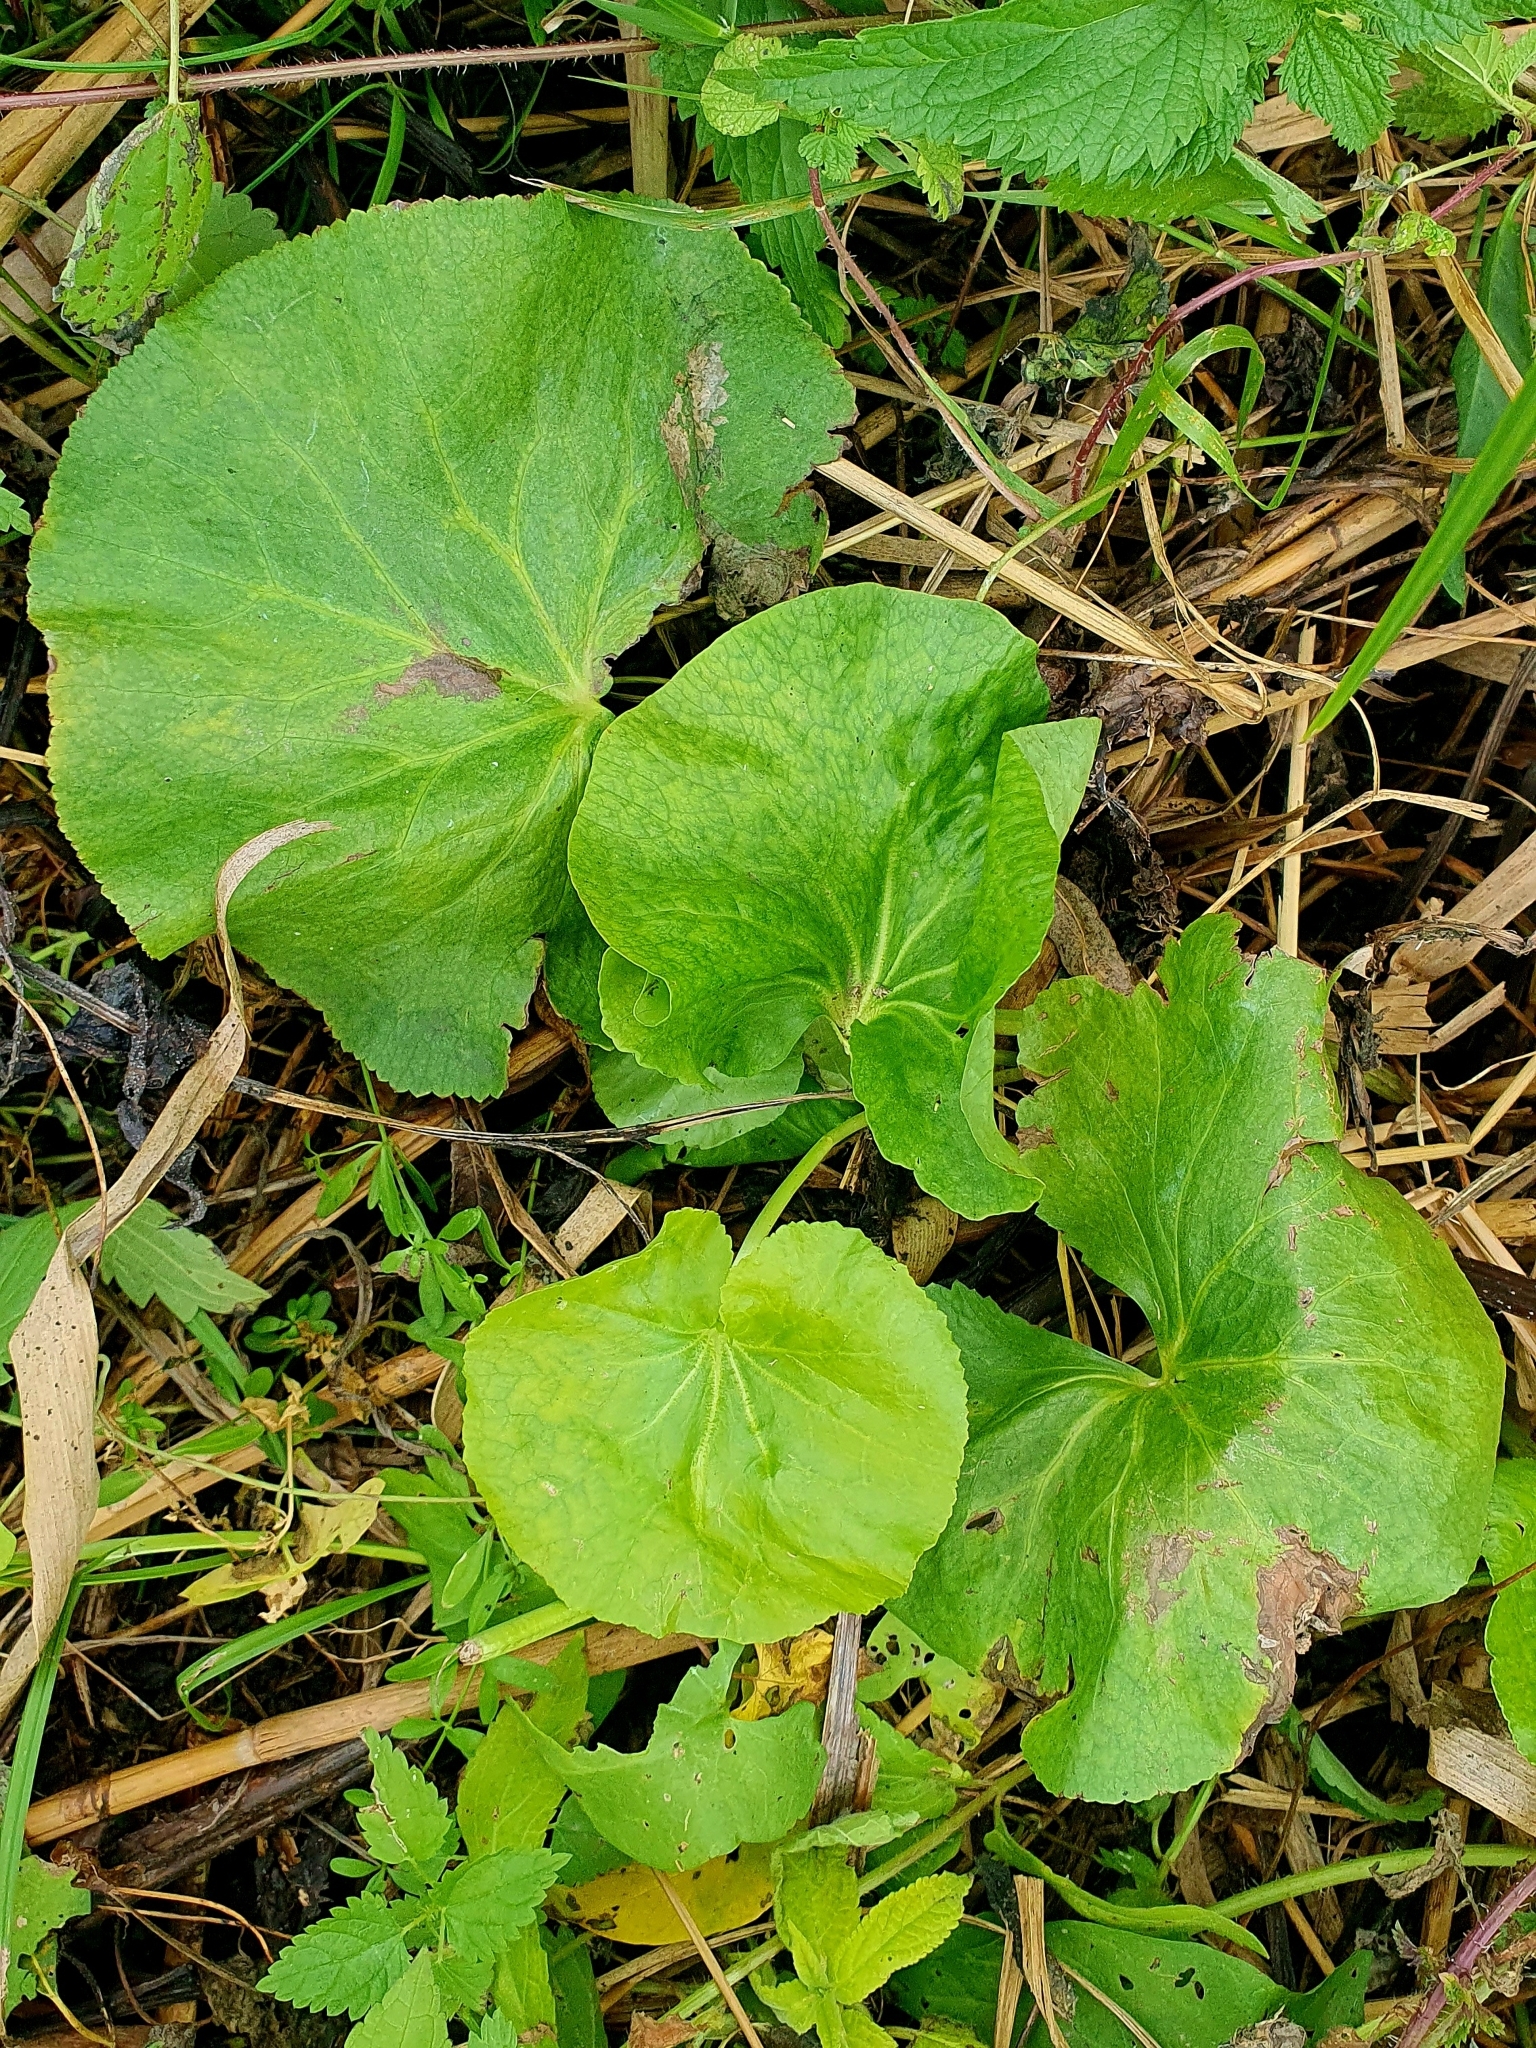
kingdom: Plantae
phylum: Tracheophyta
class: Magnoliopsida
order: Ranunculales
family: Ranunculaceae
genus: Caltha
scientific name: Caltha palustris
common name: Marsh marigold
